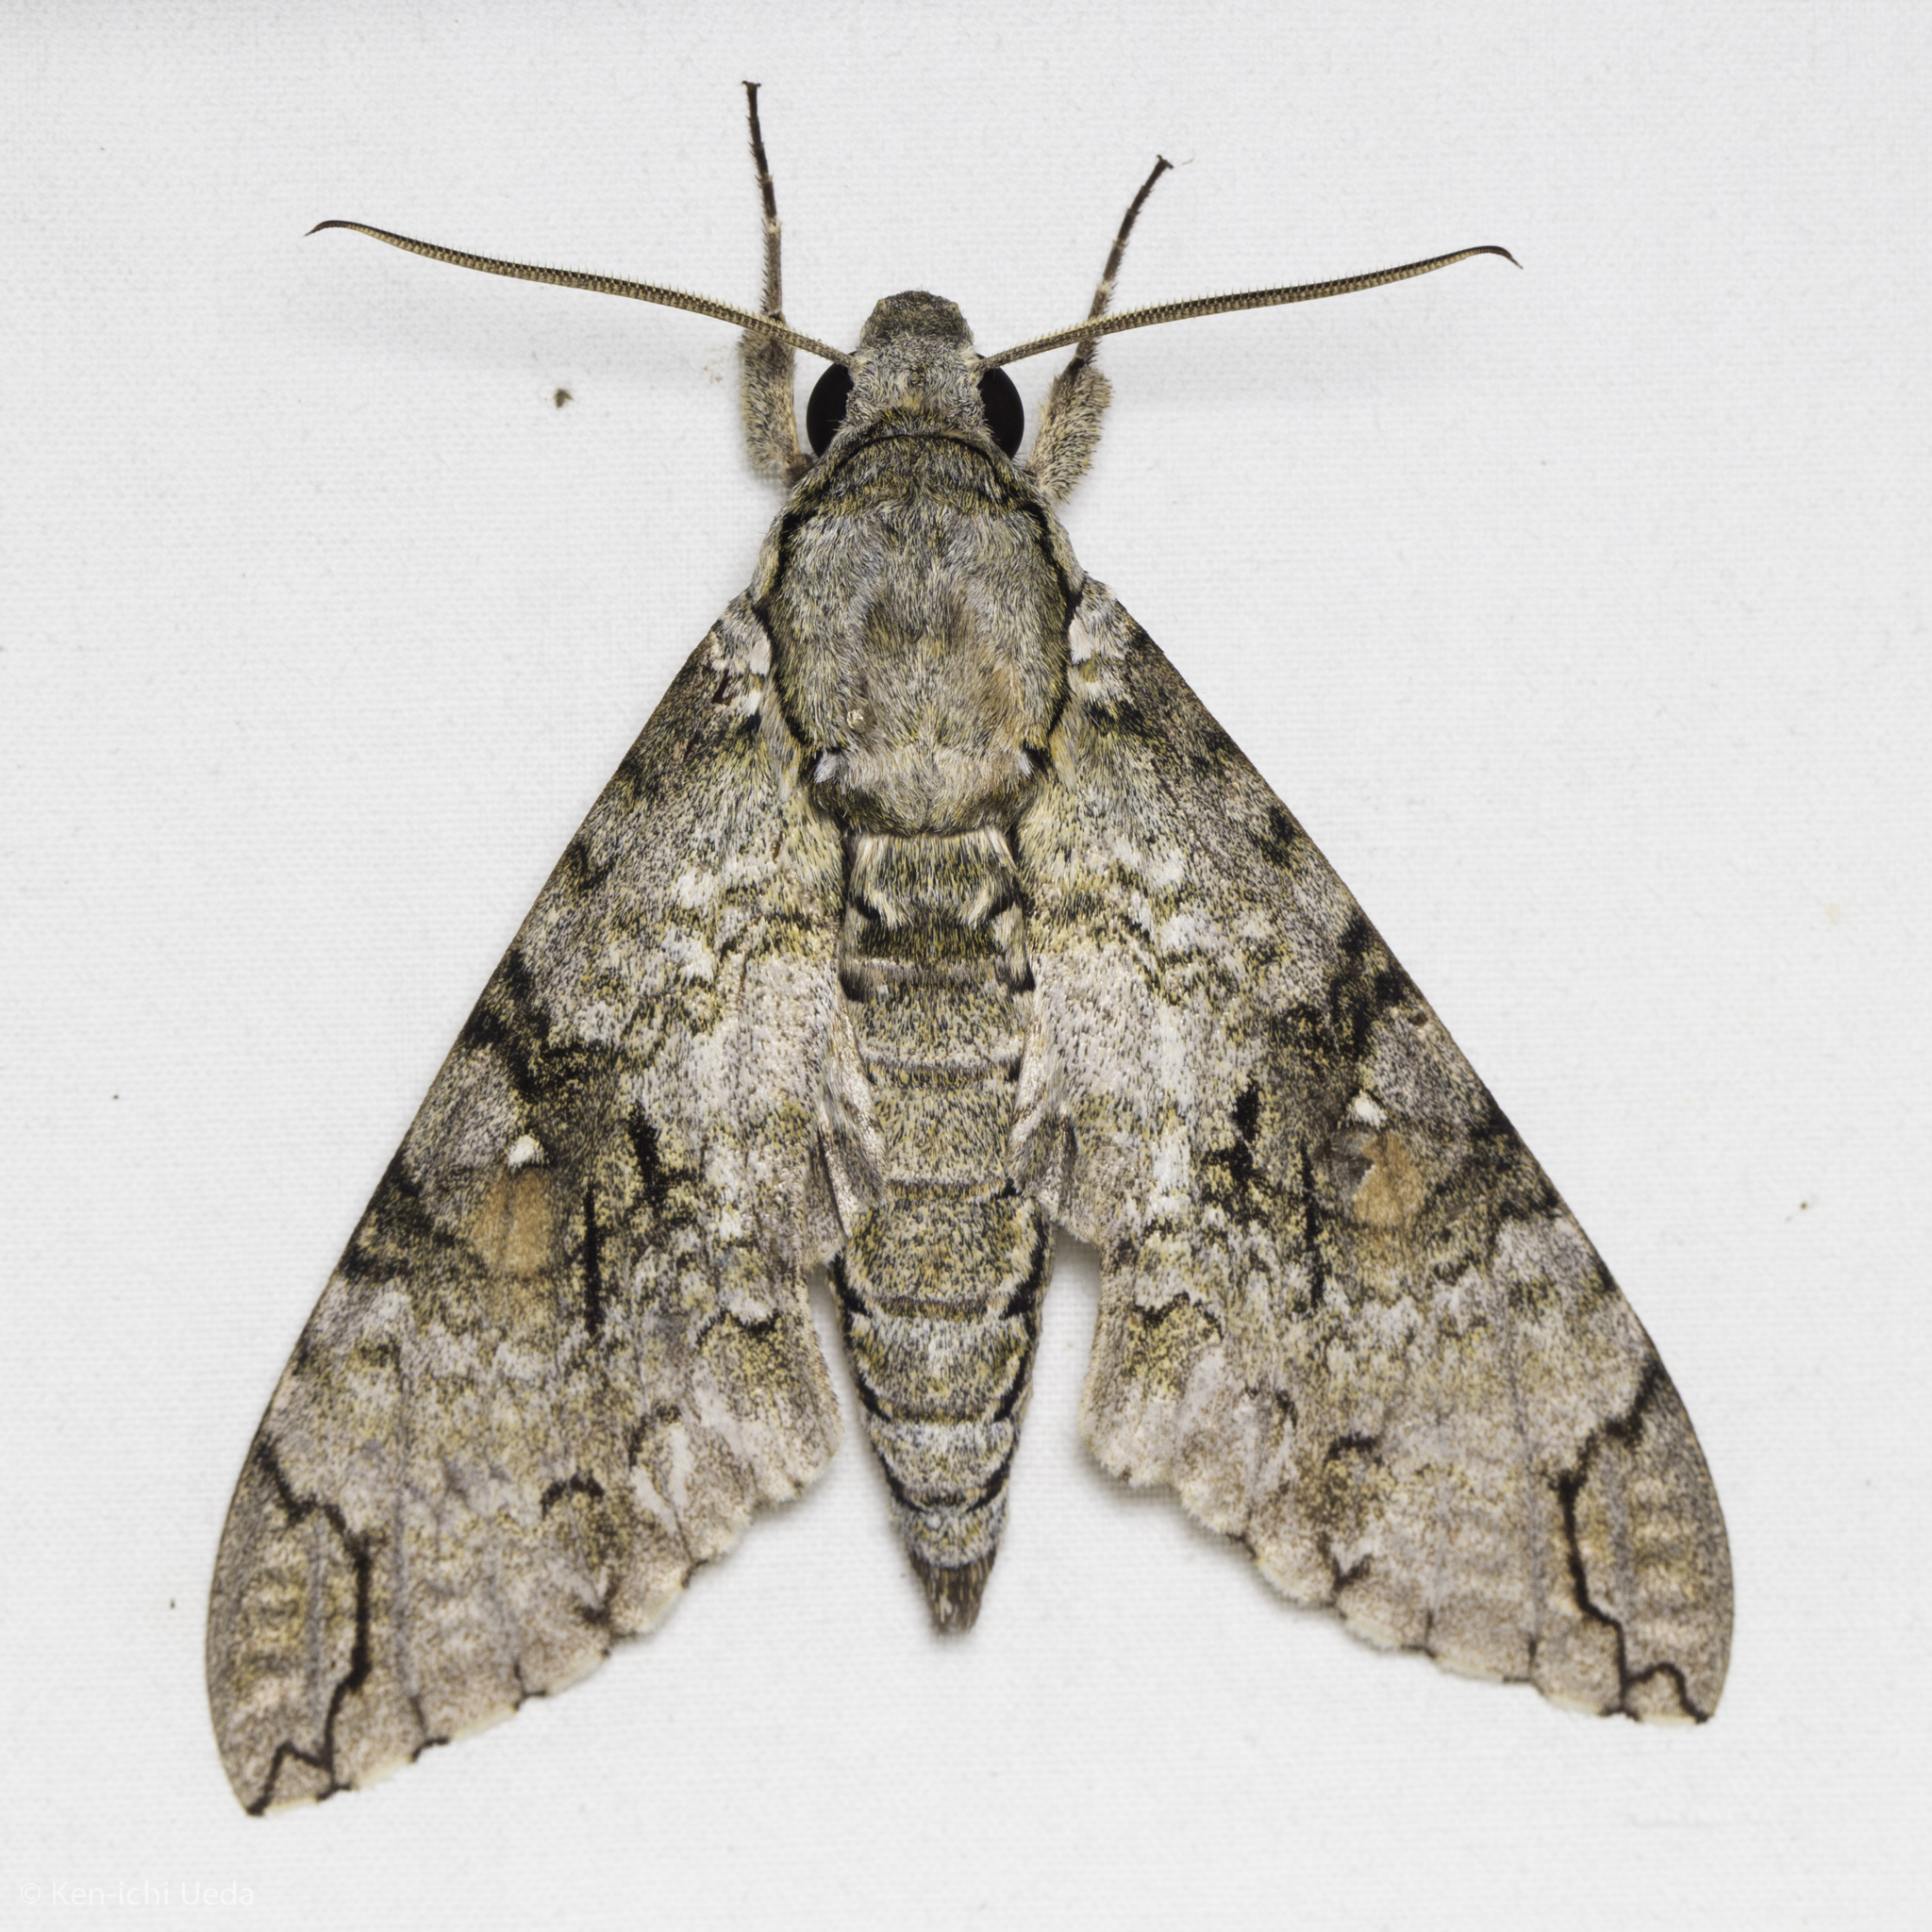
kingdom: Animalia
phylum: Arthropoda
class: Insecta
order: Lepidoptera
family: Sphingidae
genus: Manduca
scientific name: Manduca florestan
